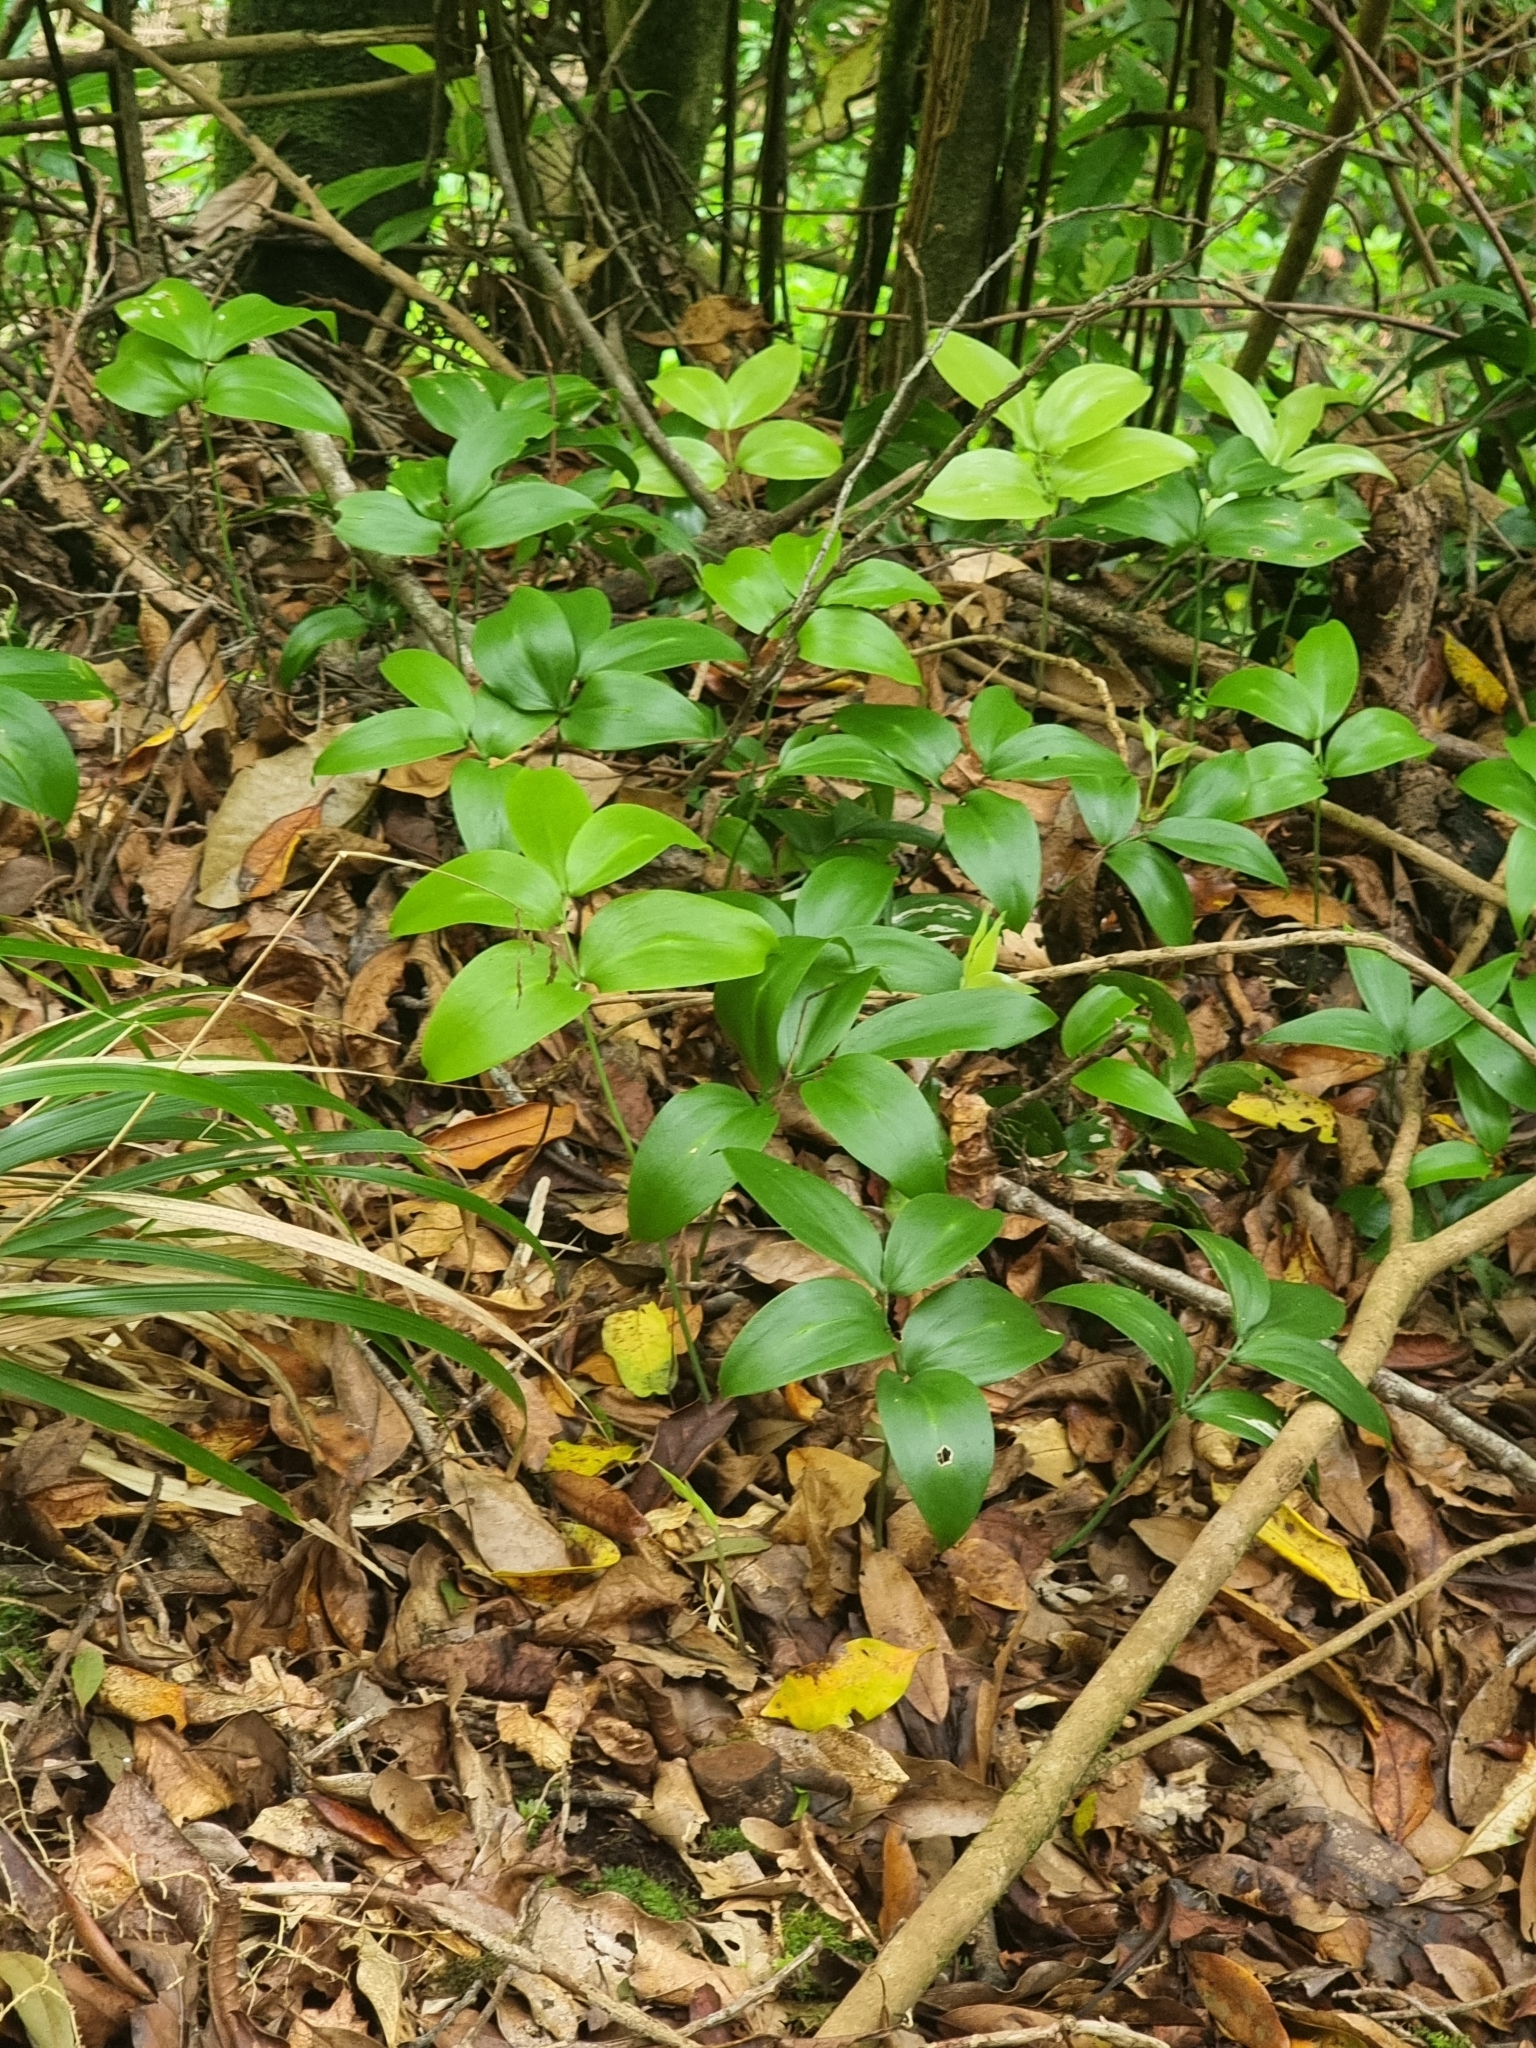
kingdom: Plantae
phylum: Tracheophyta
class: Liliopsida
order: Asparagales
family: Asparagaceae
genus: Ruscus
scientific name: Ruscus streptophyllus
